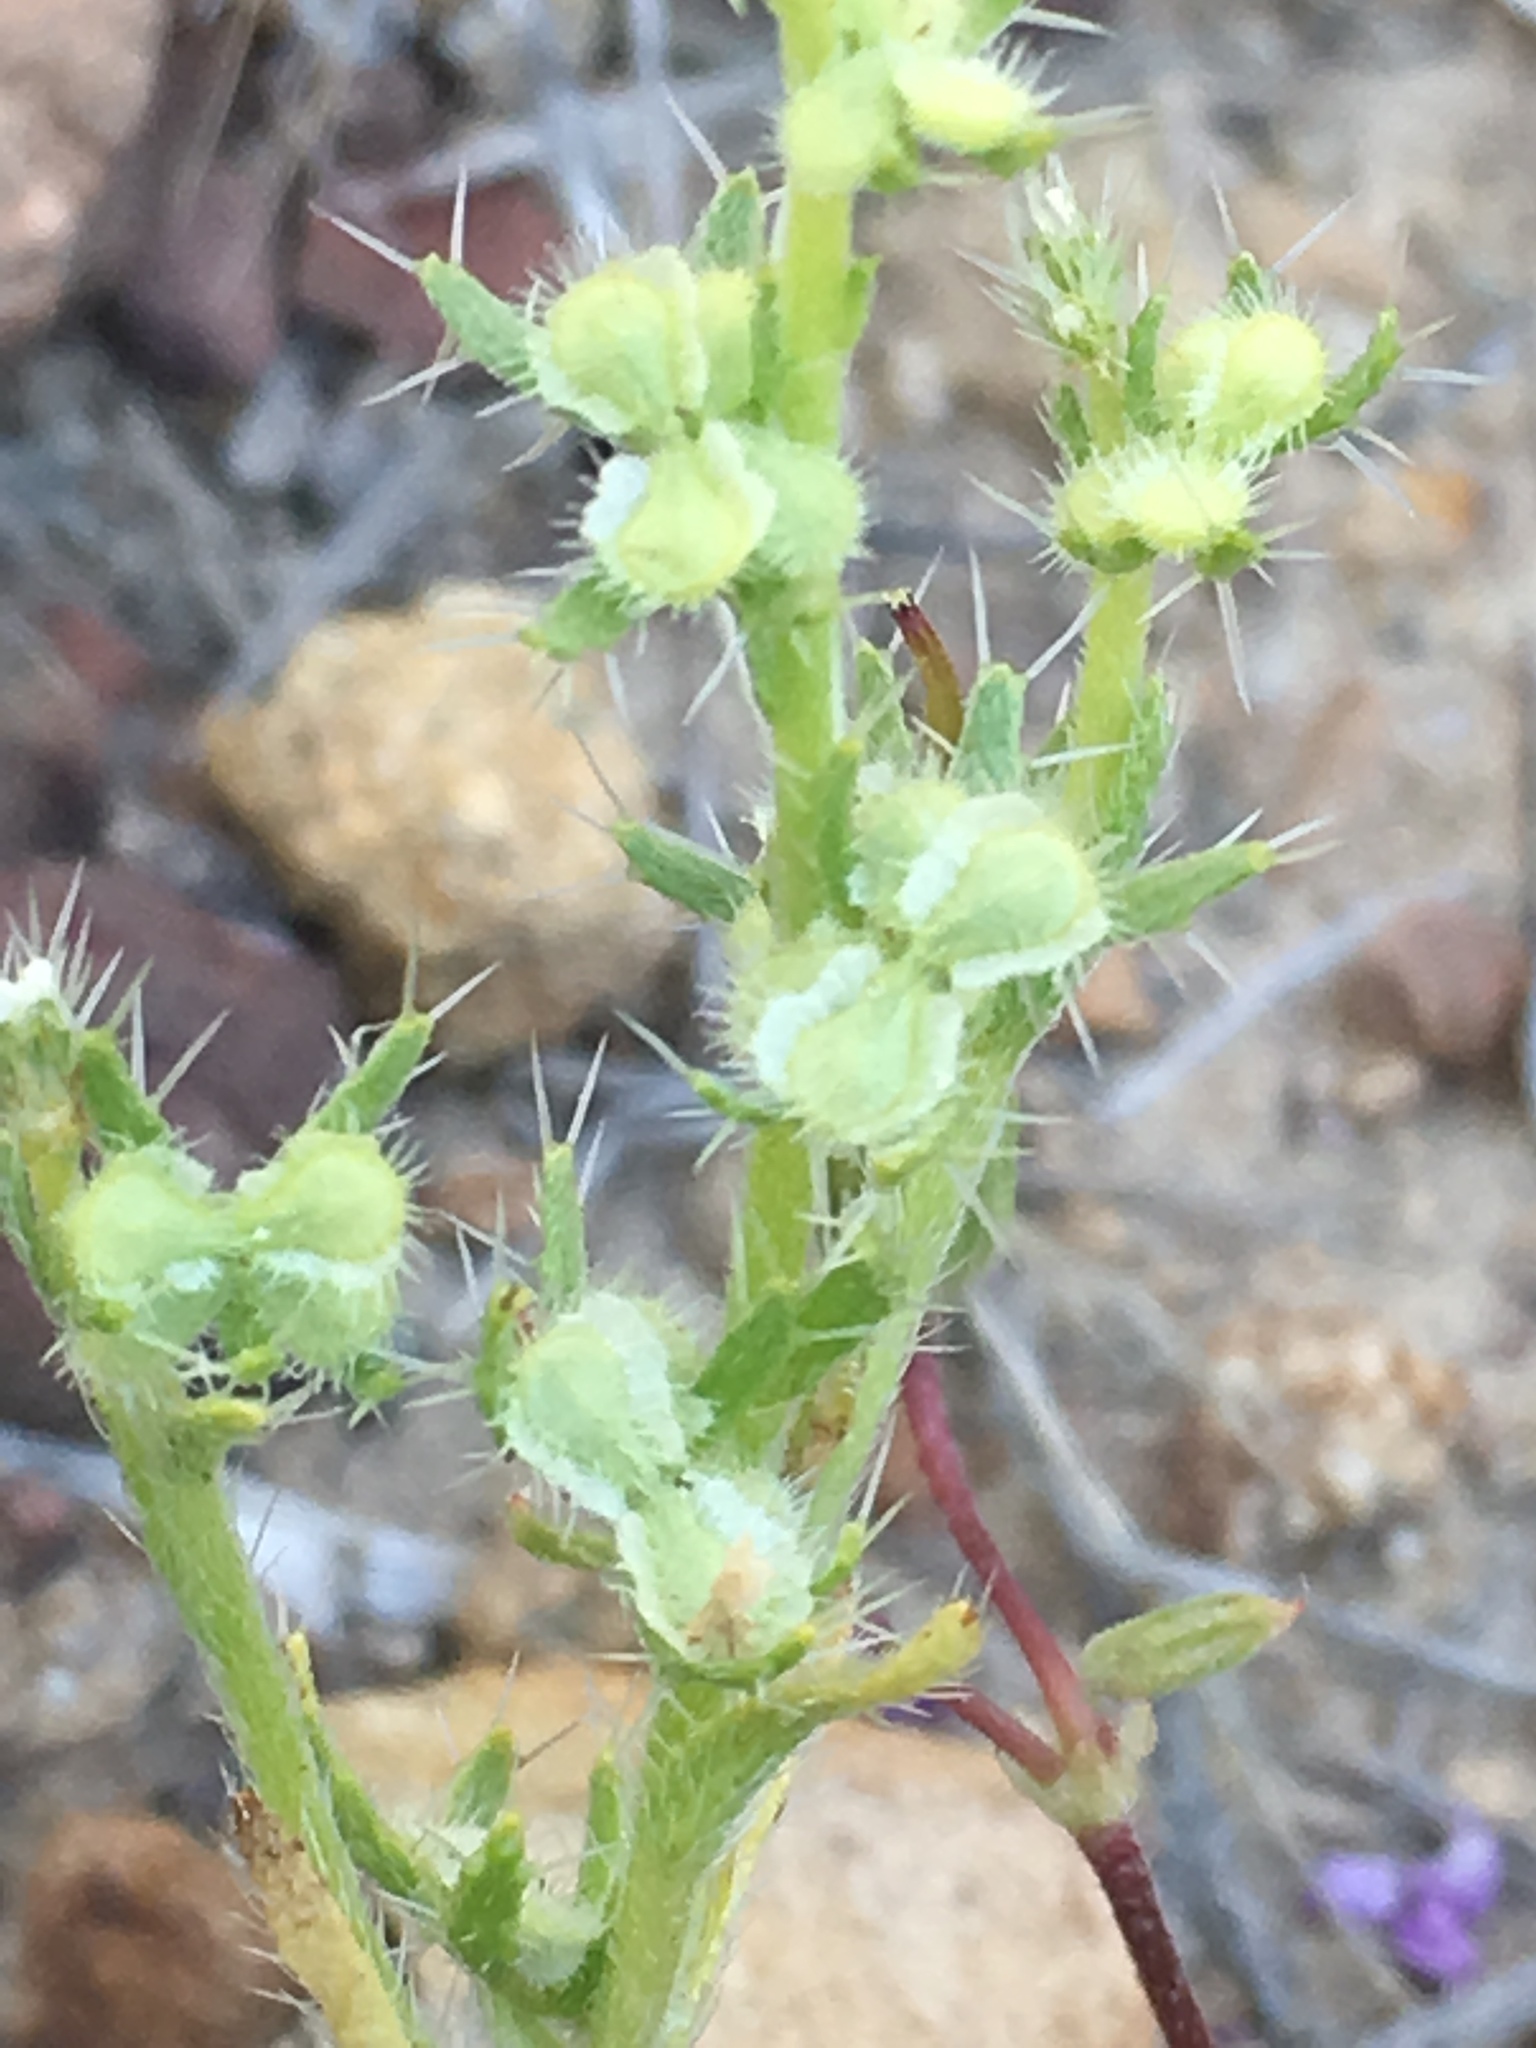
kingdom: Plantae
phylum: Tracheophyta
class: Magnoliopsida
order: Boraginales
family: Boraginaceae
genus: Pectocarya
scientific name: Pectocarya setosa
